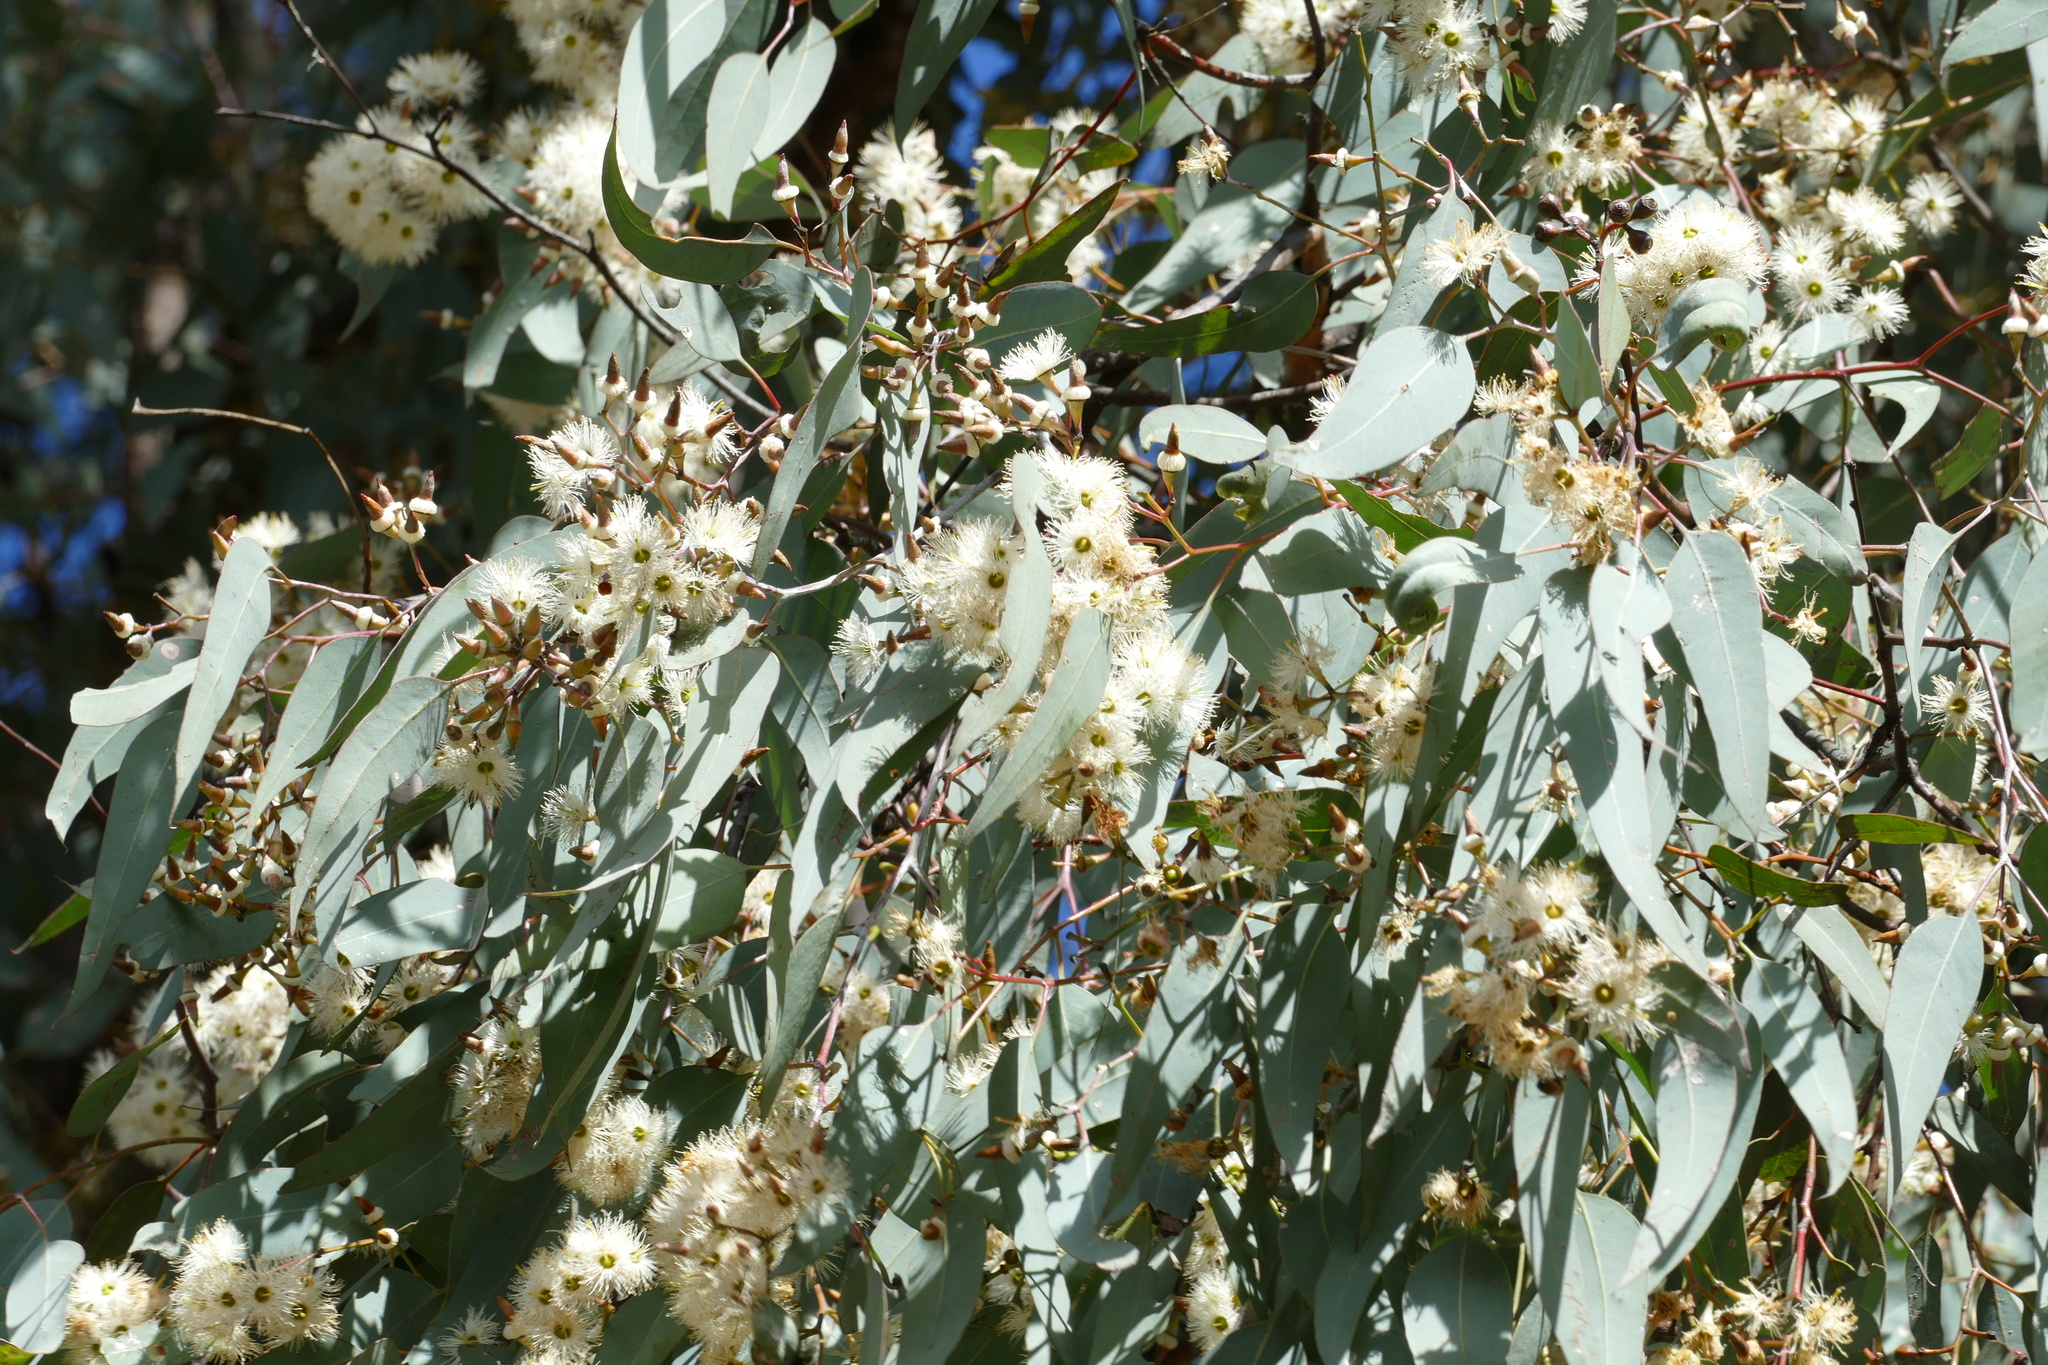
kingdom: Plantae
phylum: Tracheophyta
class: Magnoliopsida
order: Myrtales
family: Myrtaceae
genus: Eucalyptus
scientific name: Eucalyptus fibrosa
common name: Red ironbark
